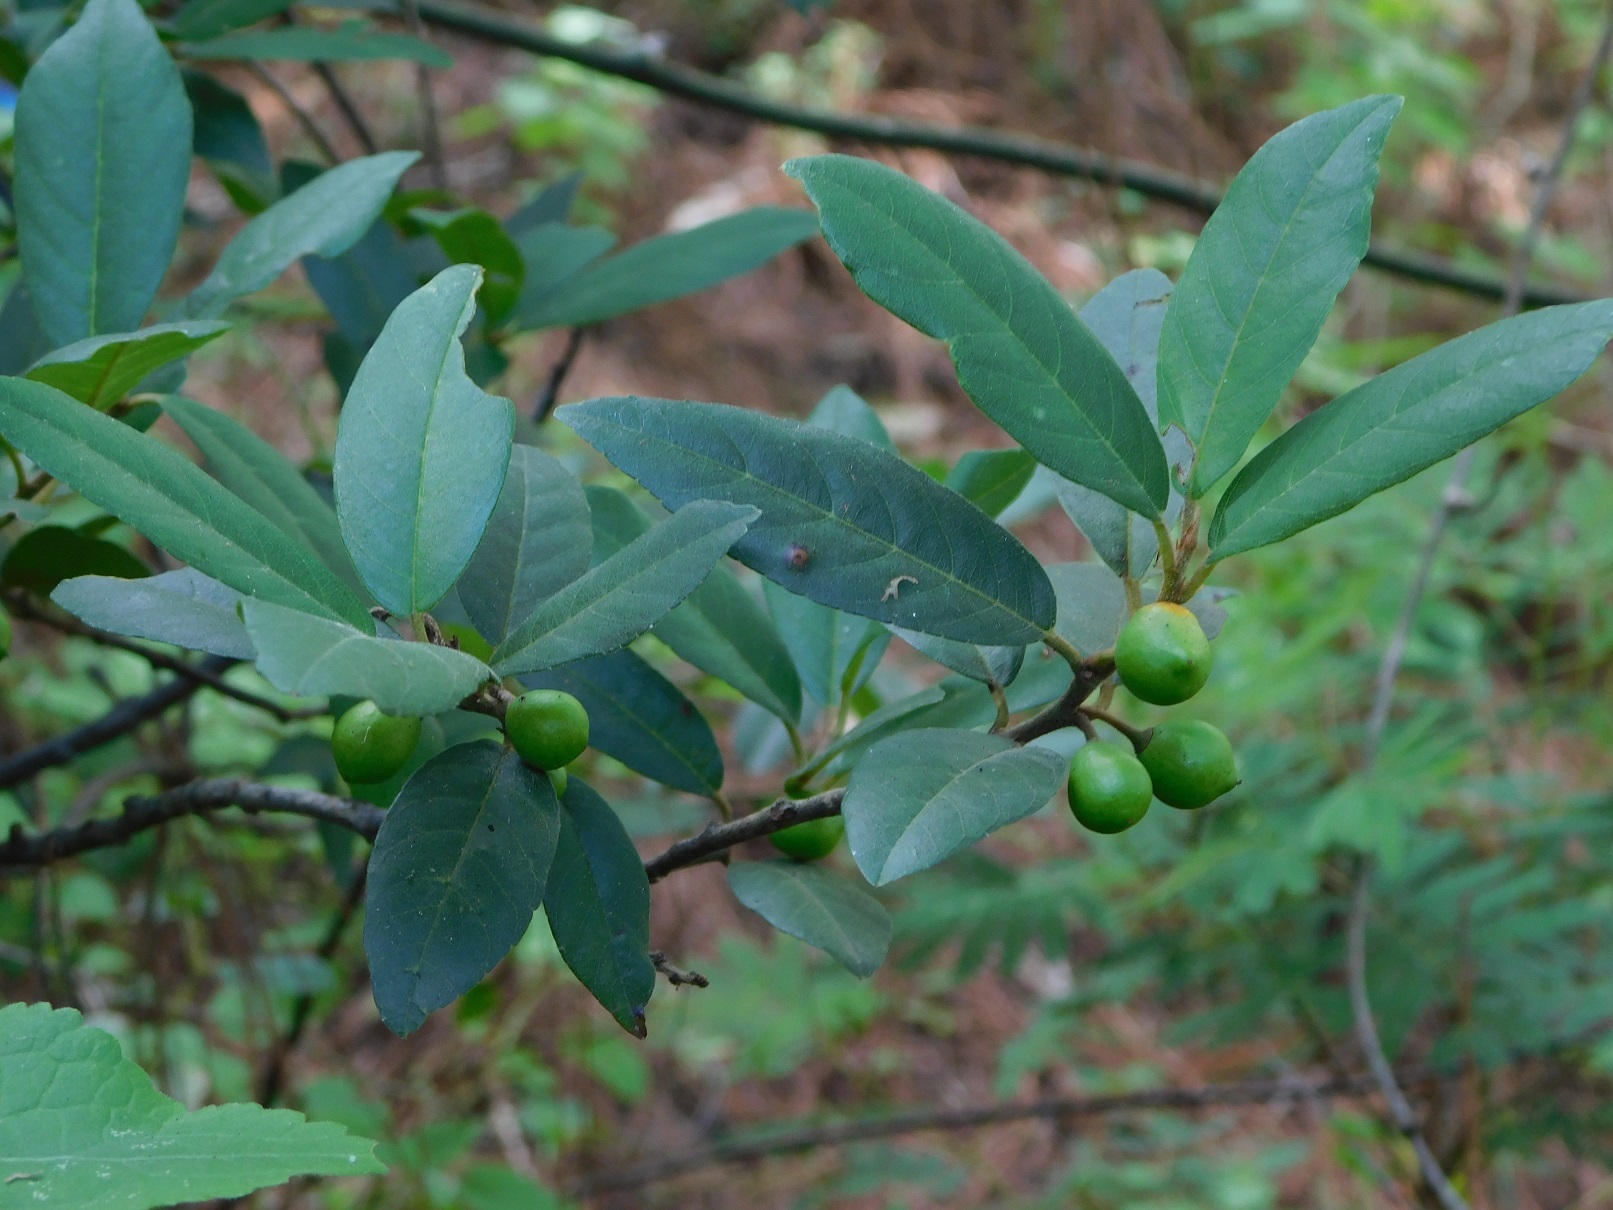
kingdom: Plantae
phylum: Tracheophyta
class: Magnoliopsida
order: Rosales
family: Rhamnaceae
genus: Frangula
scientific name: Frangula mucronata
